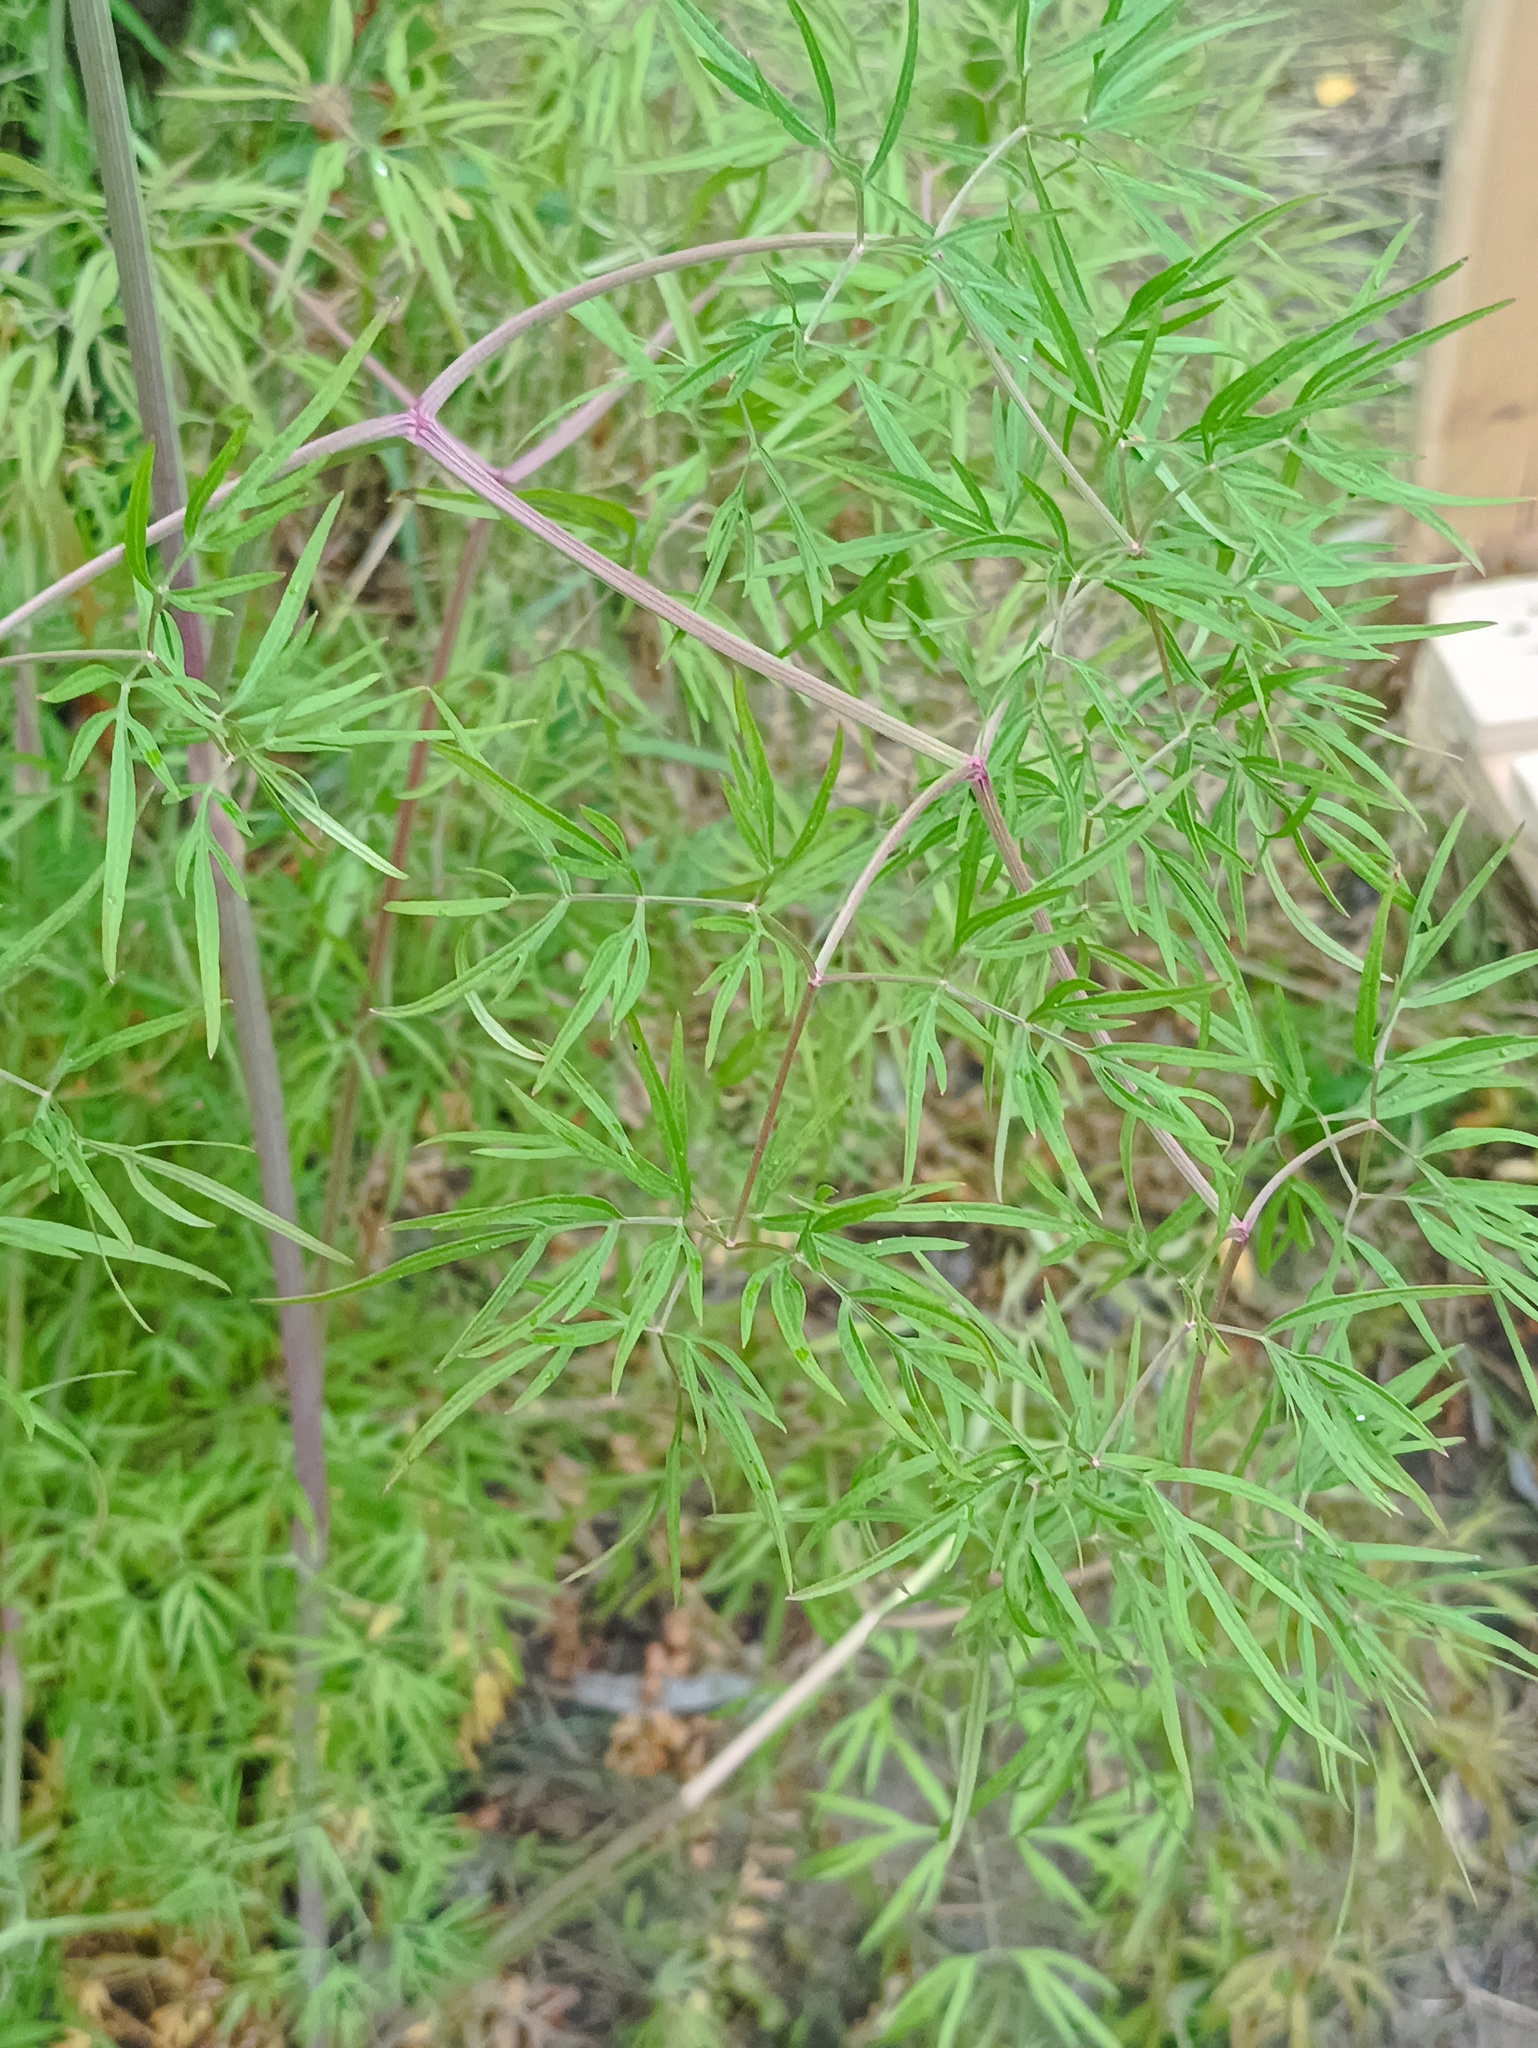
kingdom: Plantae
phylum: Tracheophyta
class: Magnoliopsida
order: Apiales
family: Apiaceae
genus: Cenolophium
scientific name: Cenolophium fischeri
